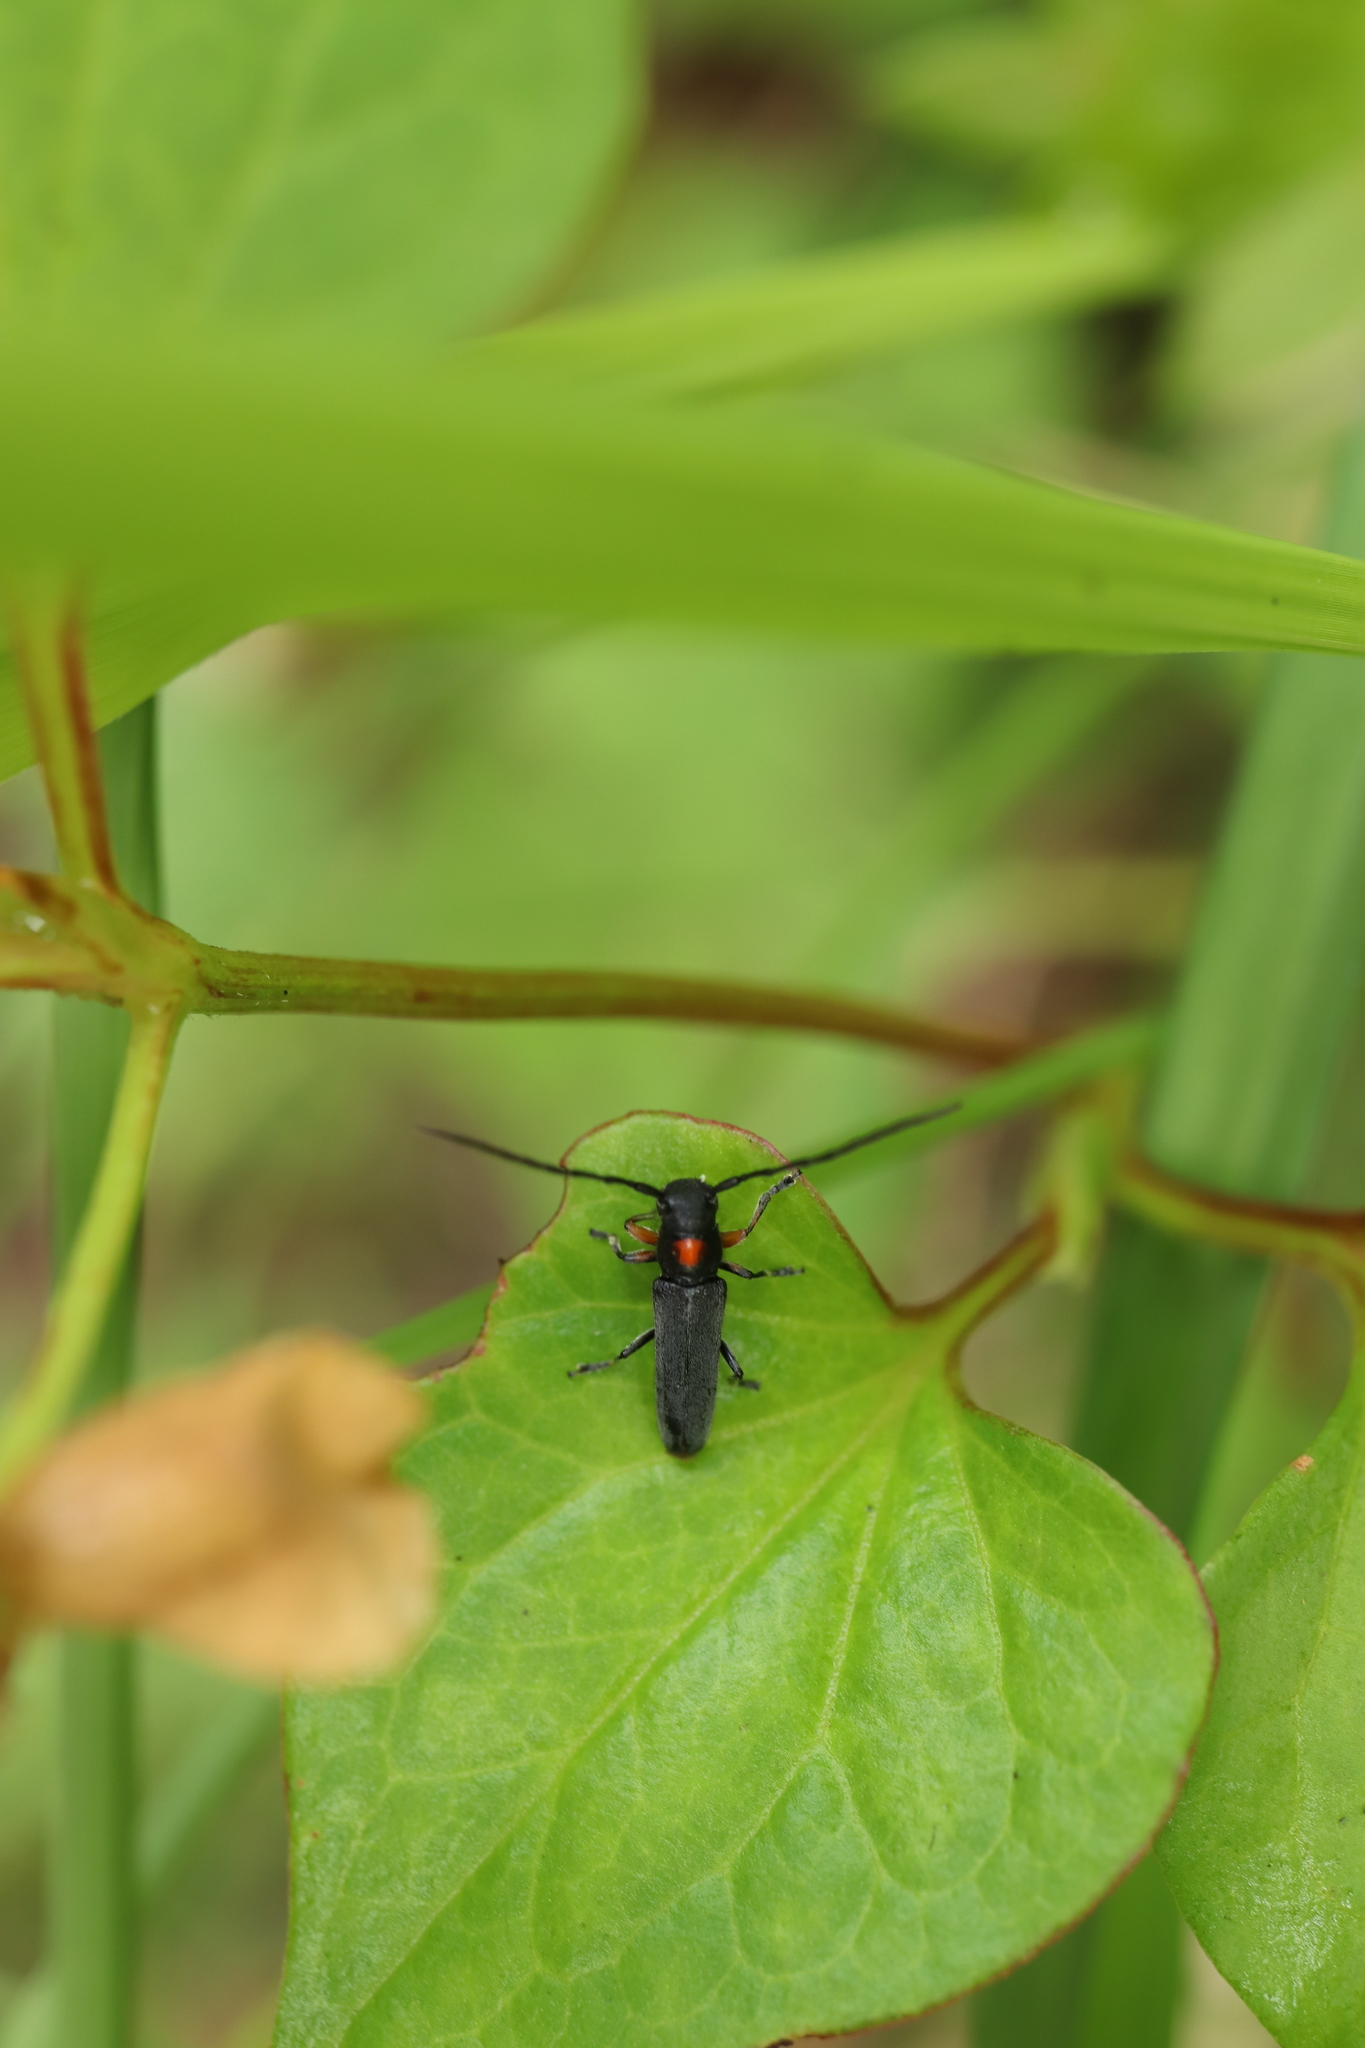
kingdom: Animalia
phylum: Arthropoda
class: Insecta
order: Coleoptera
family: Cerambycidae
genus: Phytoecia
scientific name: Phytoecia rufiventris
